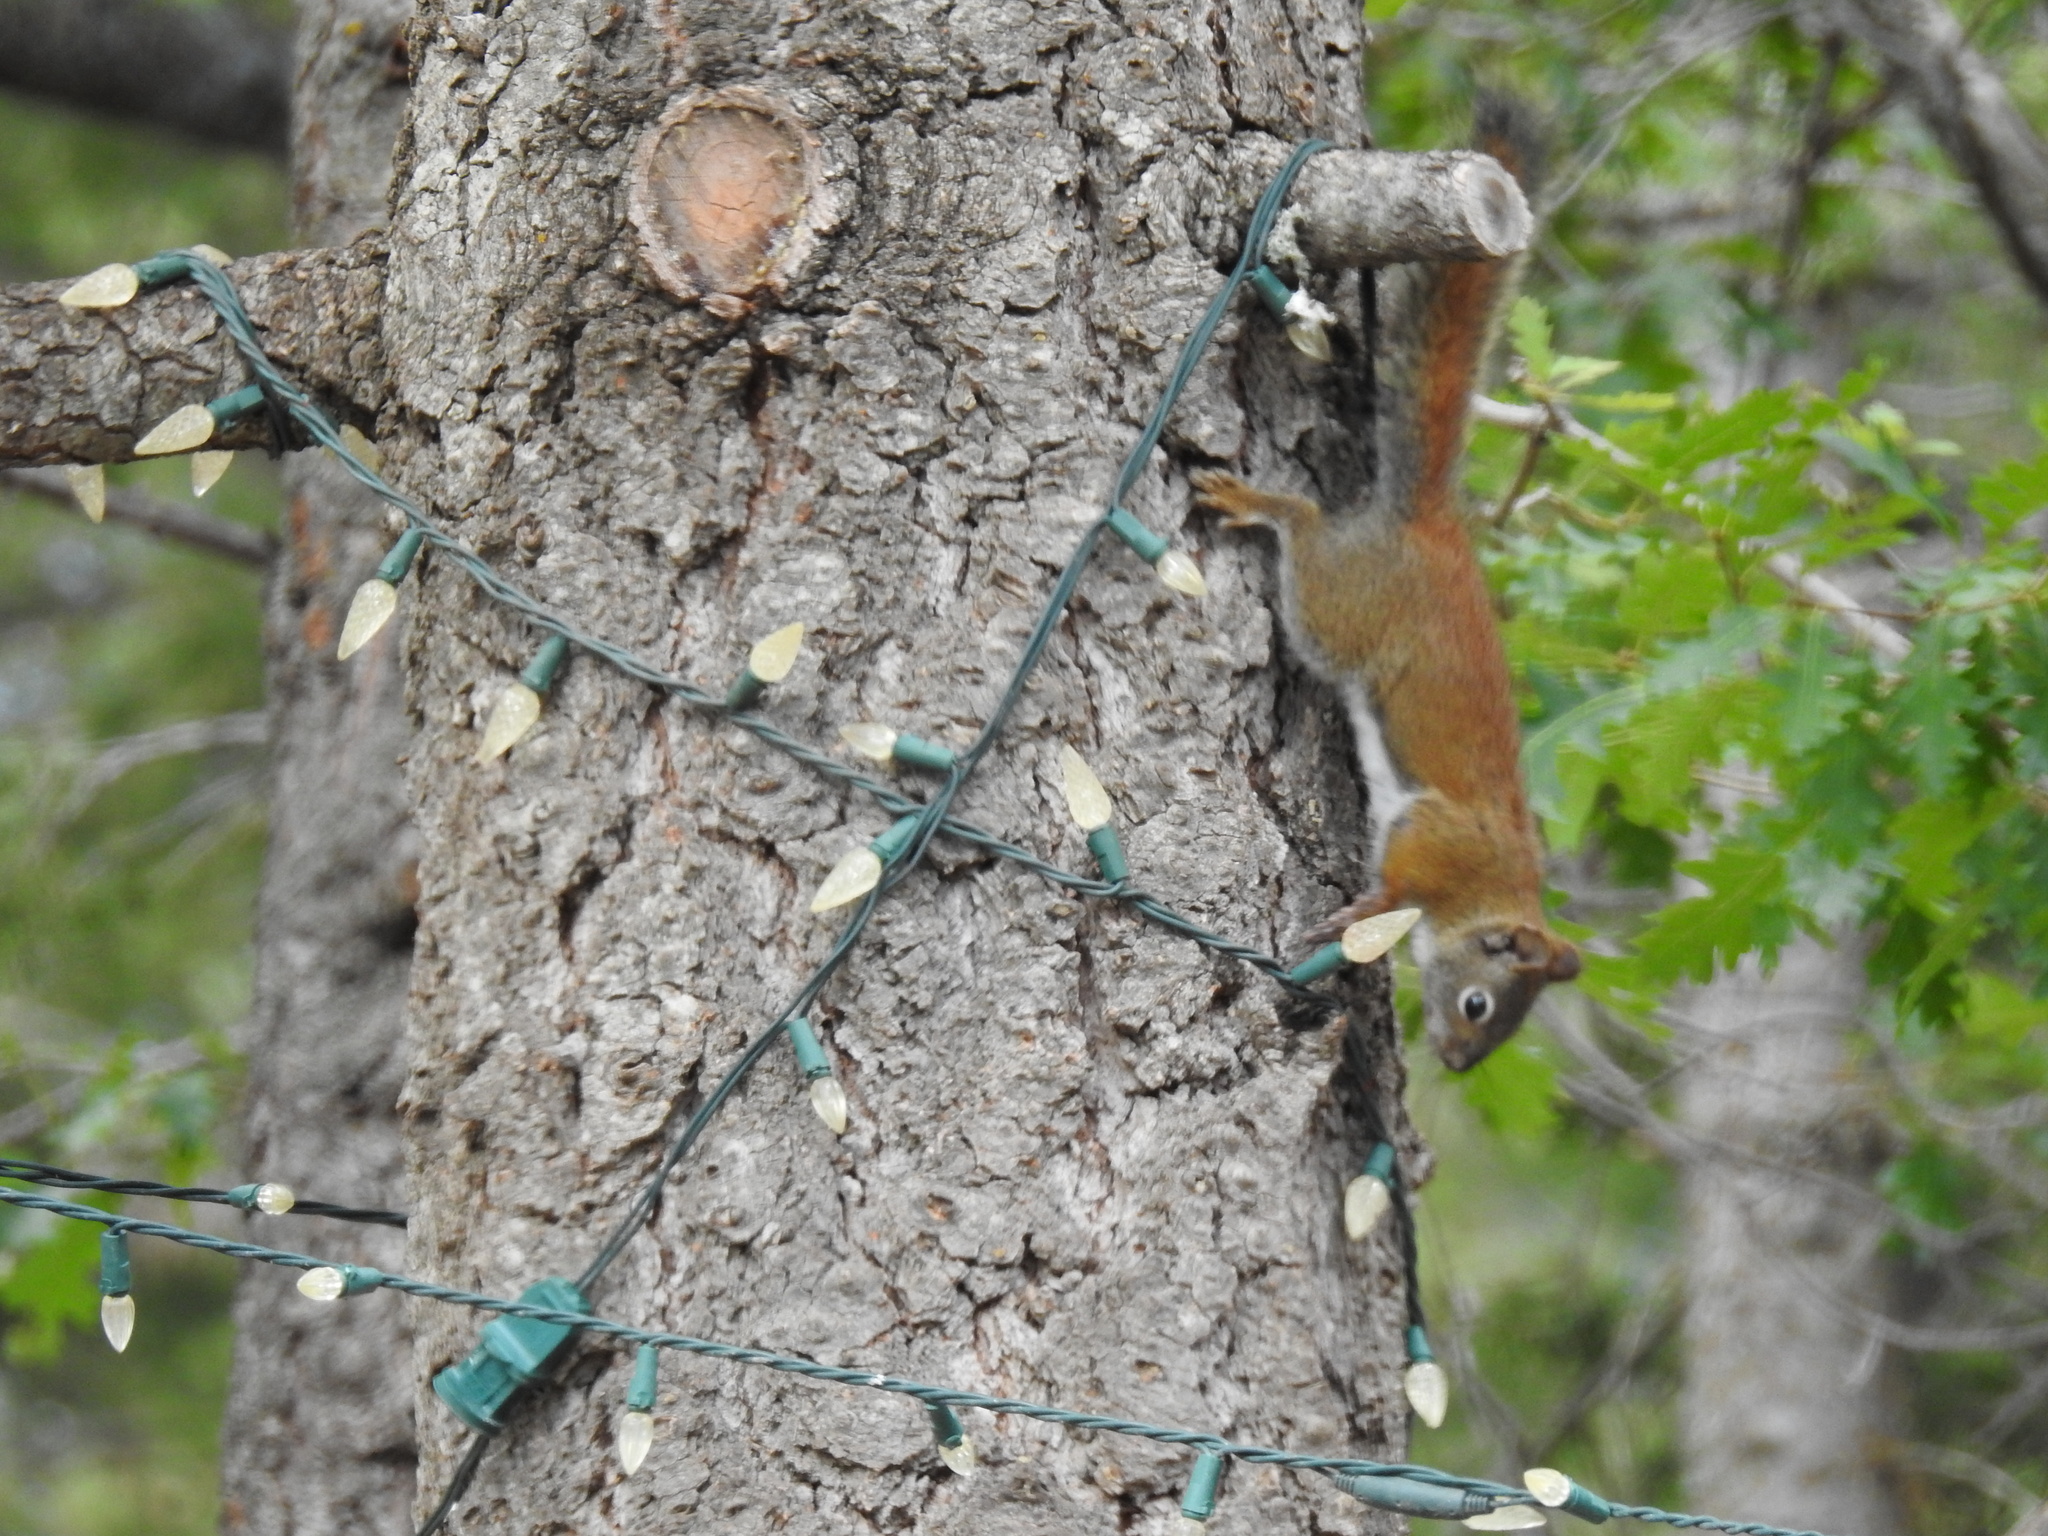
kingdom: Animalia
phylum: Chordata
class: Mammalia
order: Rodentia
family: Sciuridae
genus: Tamiasciurus
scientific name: Tamiasciurus hudsonicus
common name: Red squirrel
